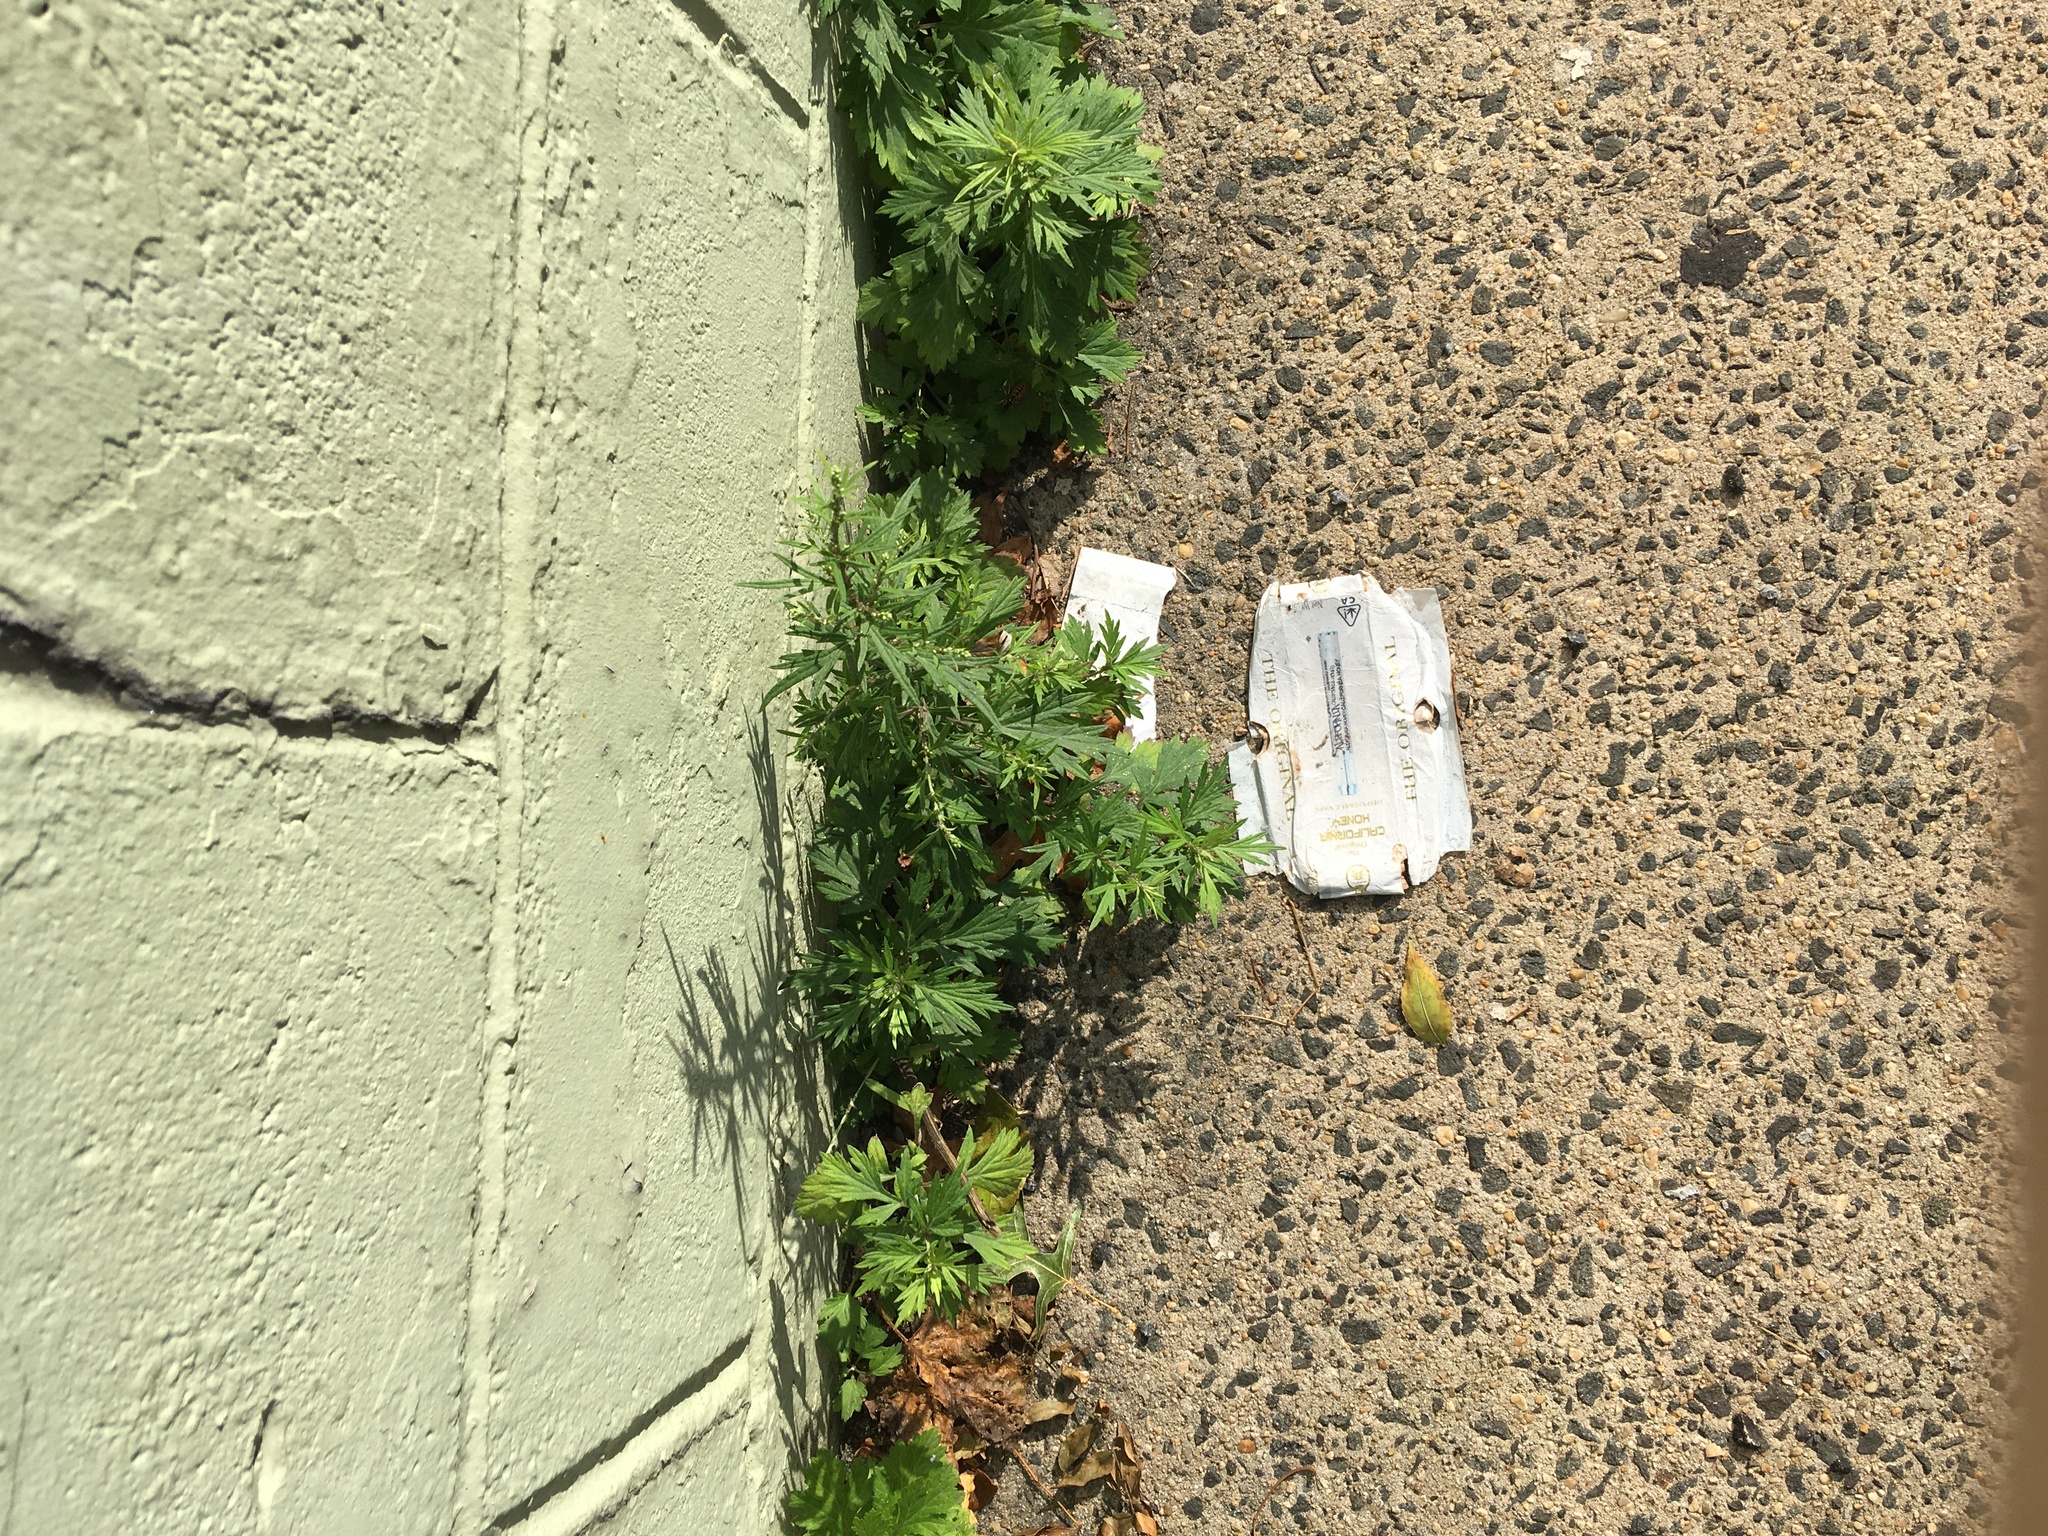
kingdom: Plantae
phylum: Tracheophyta
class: Magnoliopsida
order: Asterales
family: Asteraceae
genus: Artemisia
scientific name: Artemisia vulgaris
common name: Mugwort
